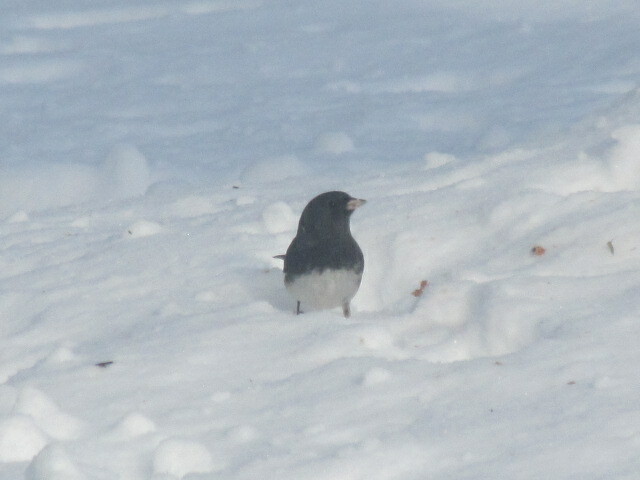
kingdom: Animalia
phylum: Chordata
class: Aves
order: Passeriformes
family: Passerellidae
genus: Junco
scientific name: Junco hyemalis
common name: Dark-eyed junco
